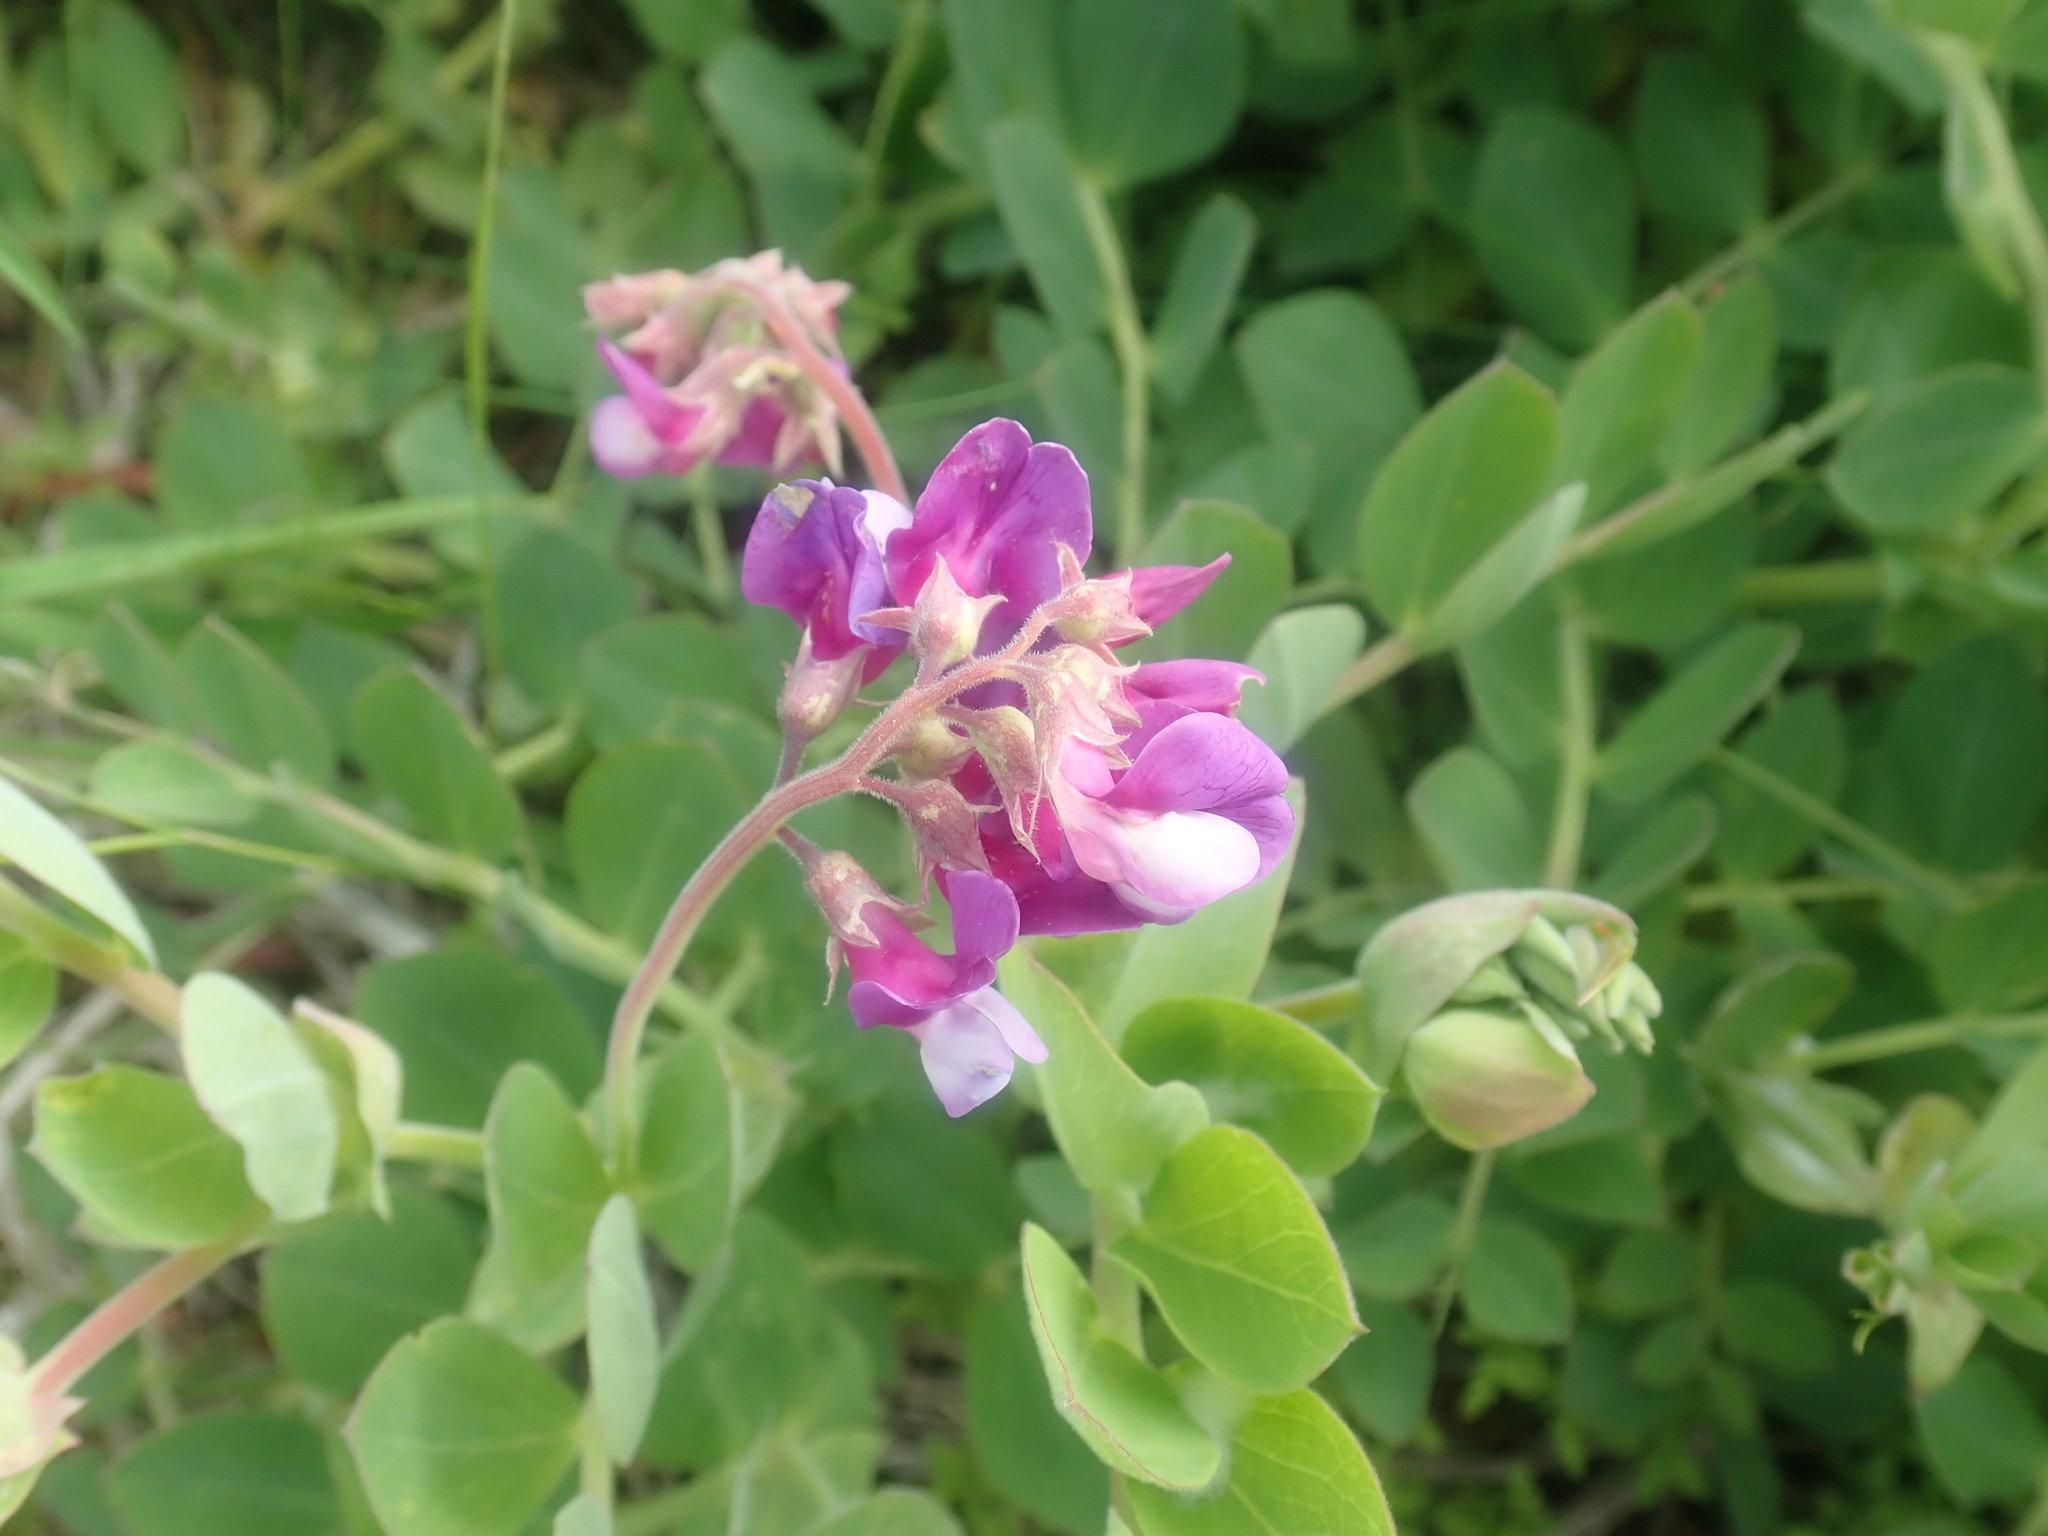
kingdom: Plantae
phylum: Tracheophyta
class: Magnoliopsida
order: Fabales
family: Fabaceae
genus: Lathyrus
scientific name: Lathyrus japonicus
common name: Sea pea
